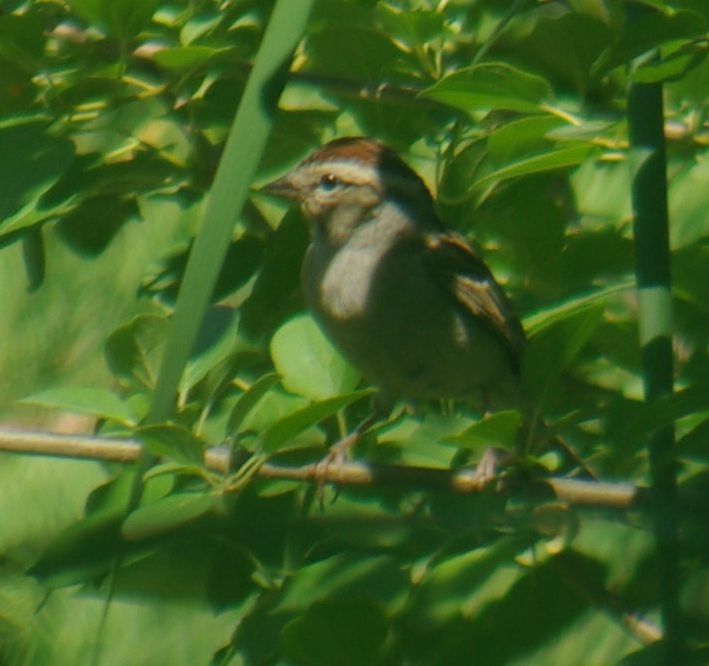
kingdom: Animalia
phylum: Chordata
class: Aves
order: Passeriformes
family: Passerellidae
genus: Spizella
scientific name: Spizella passerina
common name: Chipping sparrow
